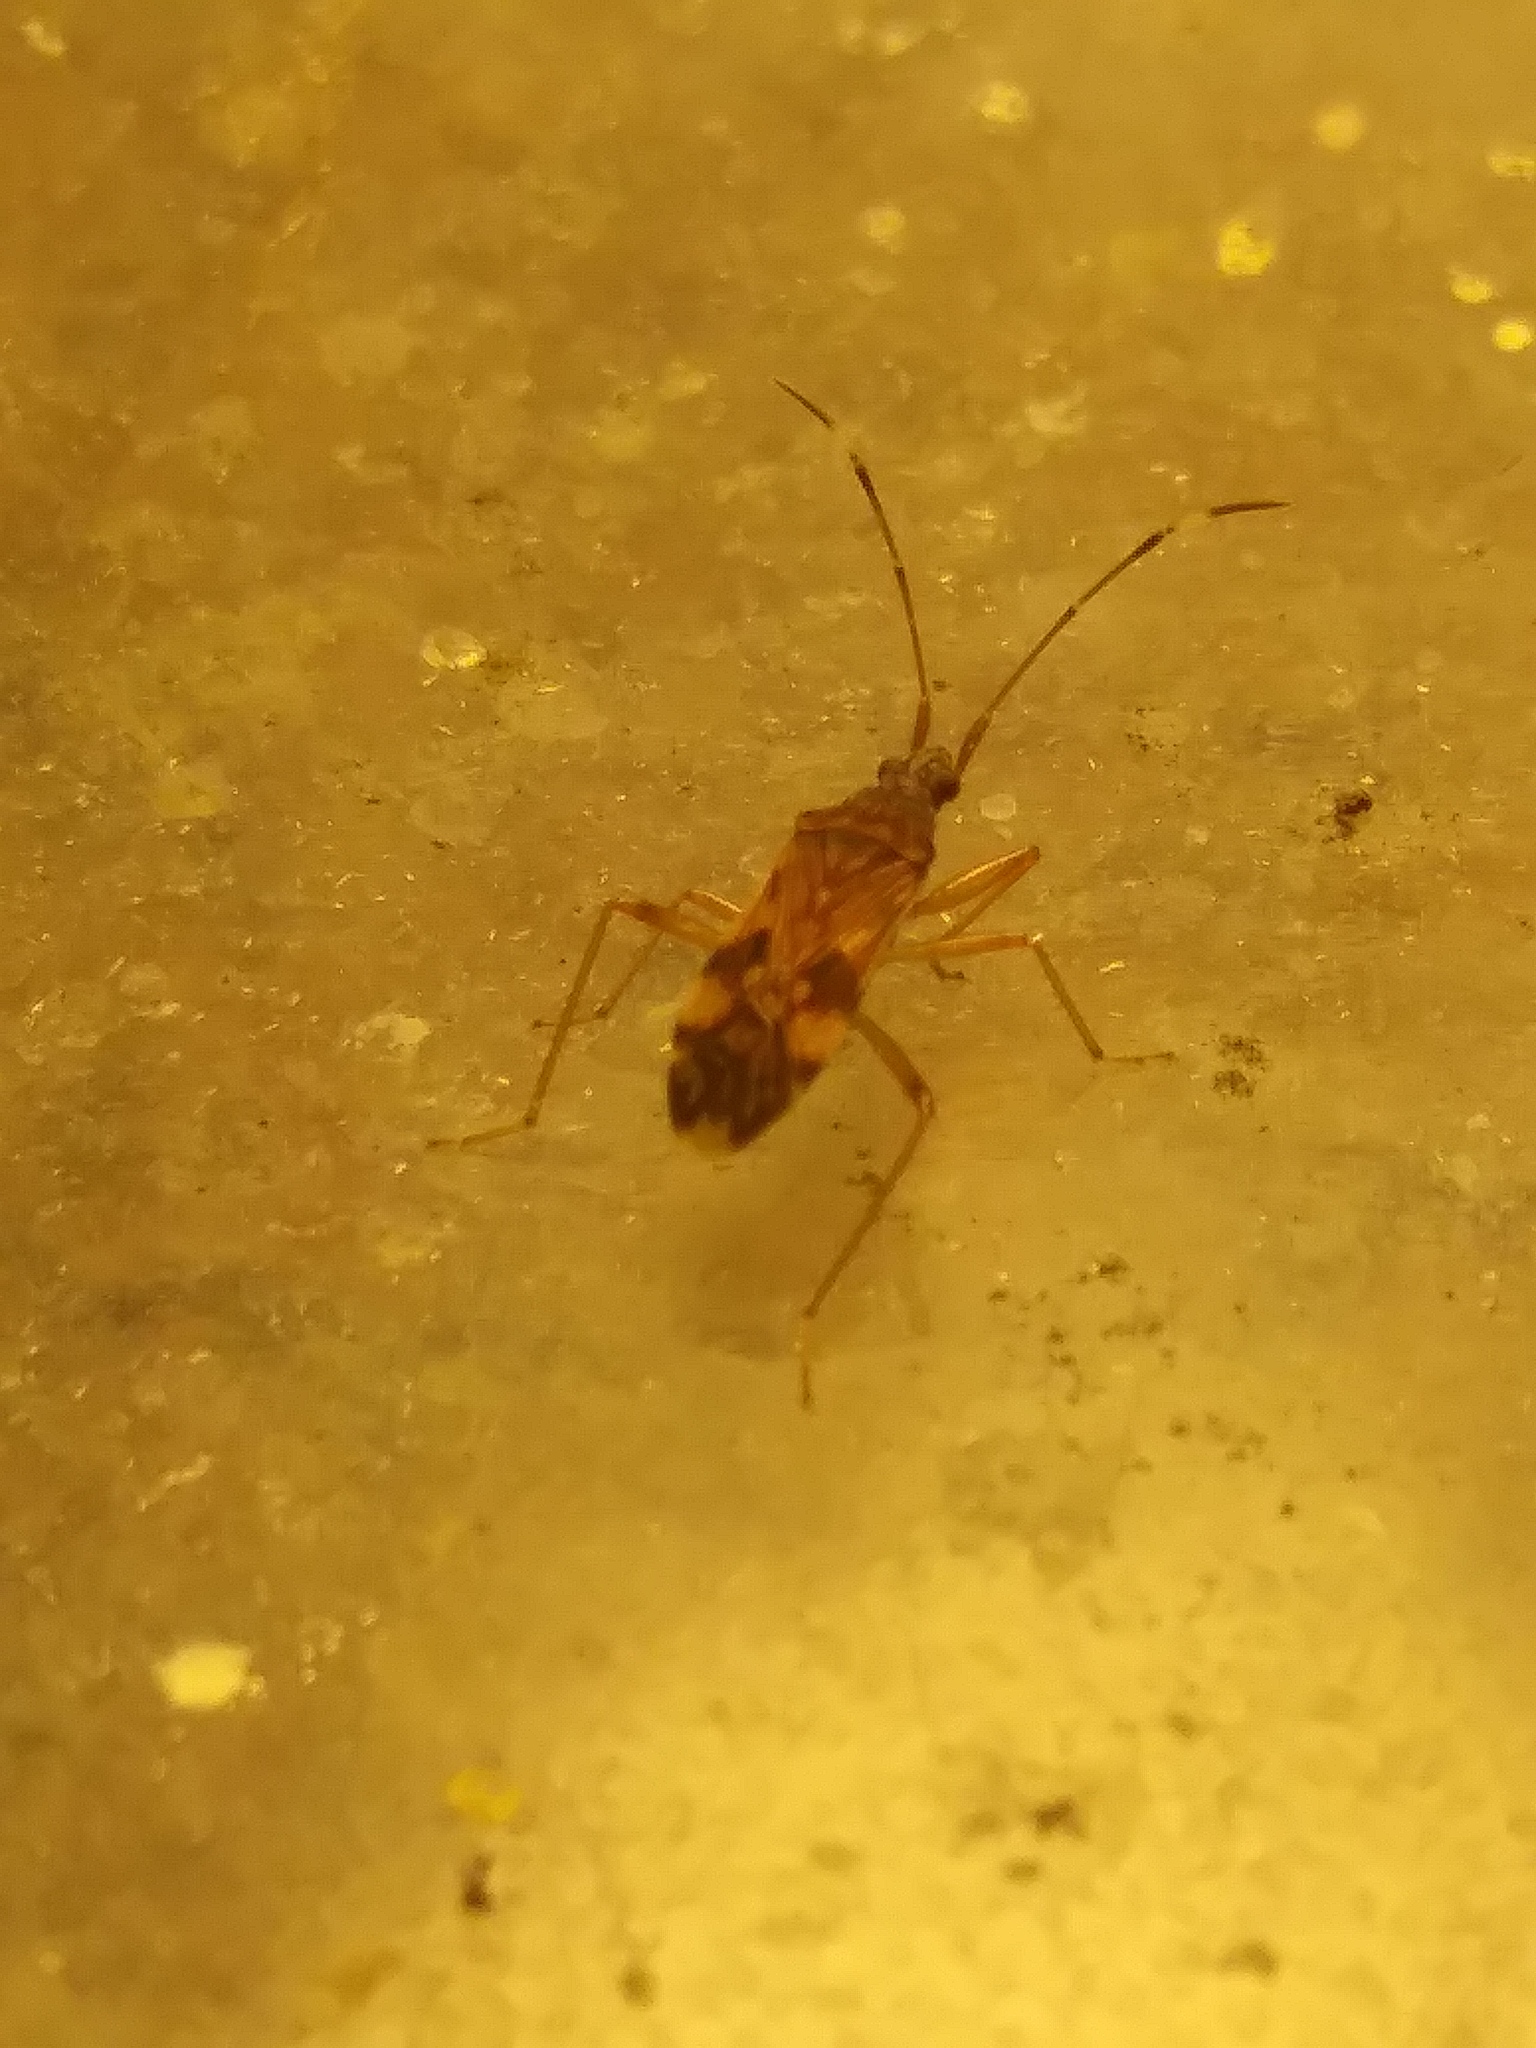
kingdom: Animalia
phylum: Arthropoda
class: Insecta
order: Hemiptera
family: Rhyparochromidae
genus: Ozophora
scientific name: Ozophora picturata
